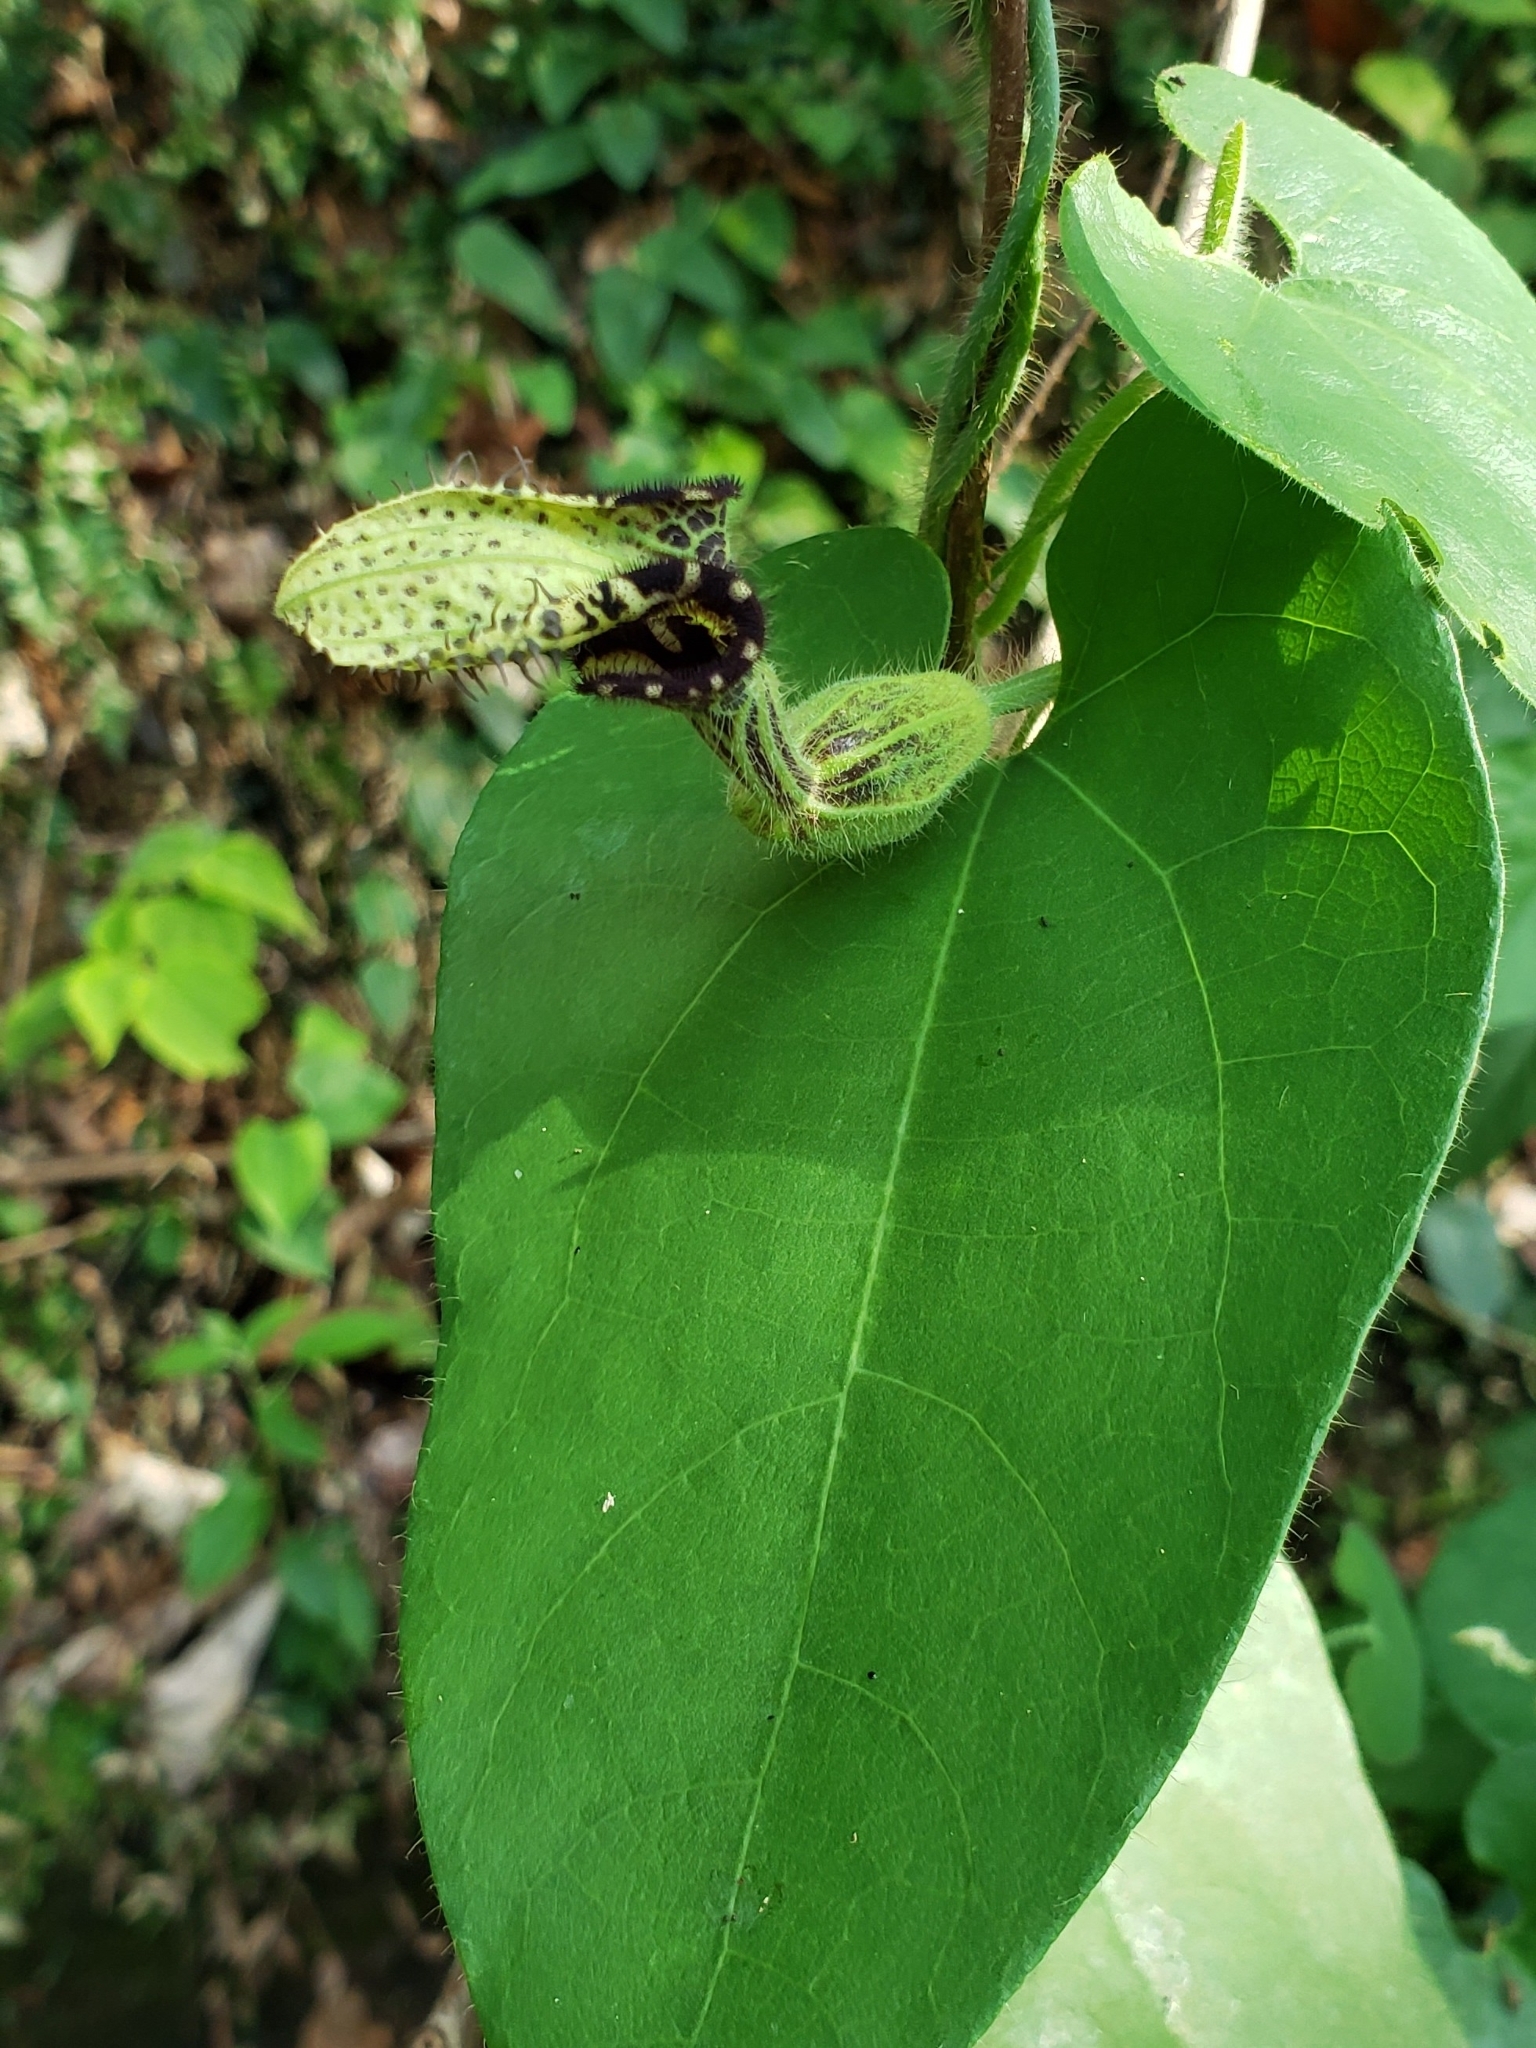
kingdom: Plantae
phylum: Tracheophyta
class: Magnoliopsida
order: Piperales
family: Aristolochiaceae
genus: Aristolochia
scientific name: Aristolochia pilosa
